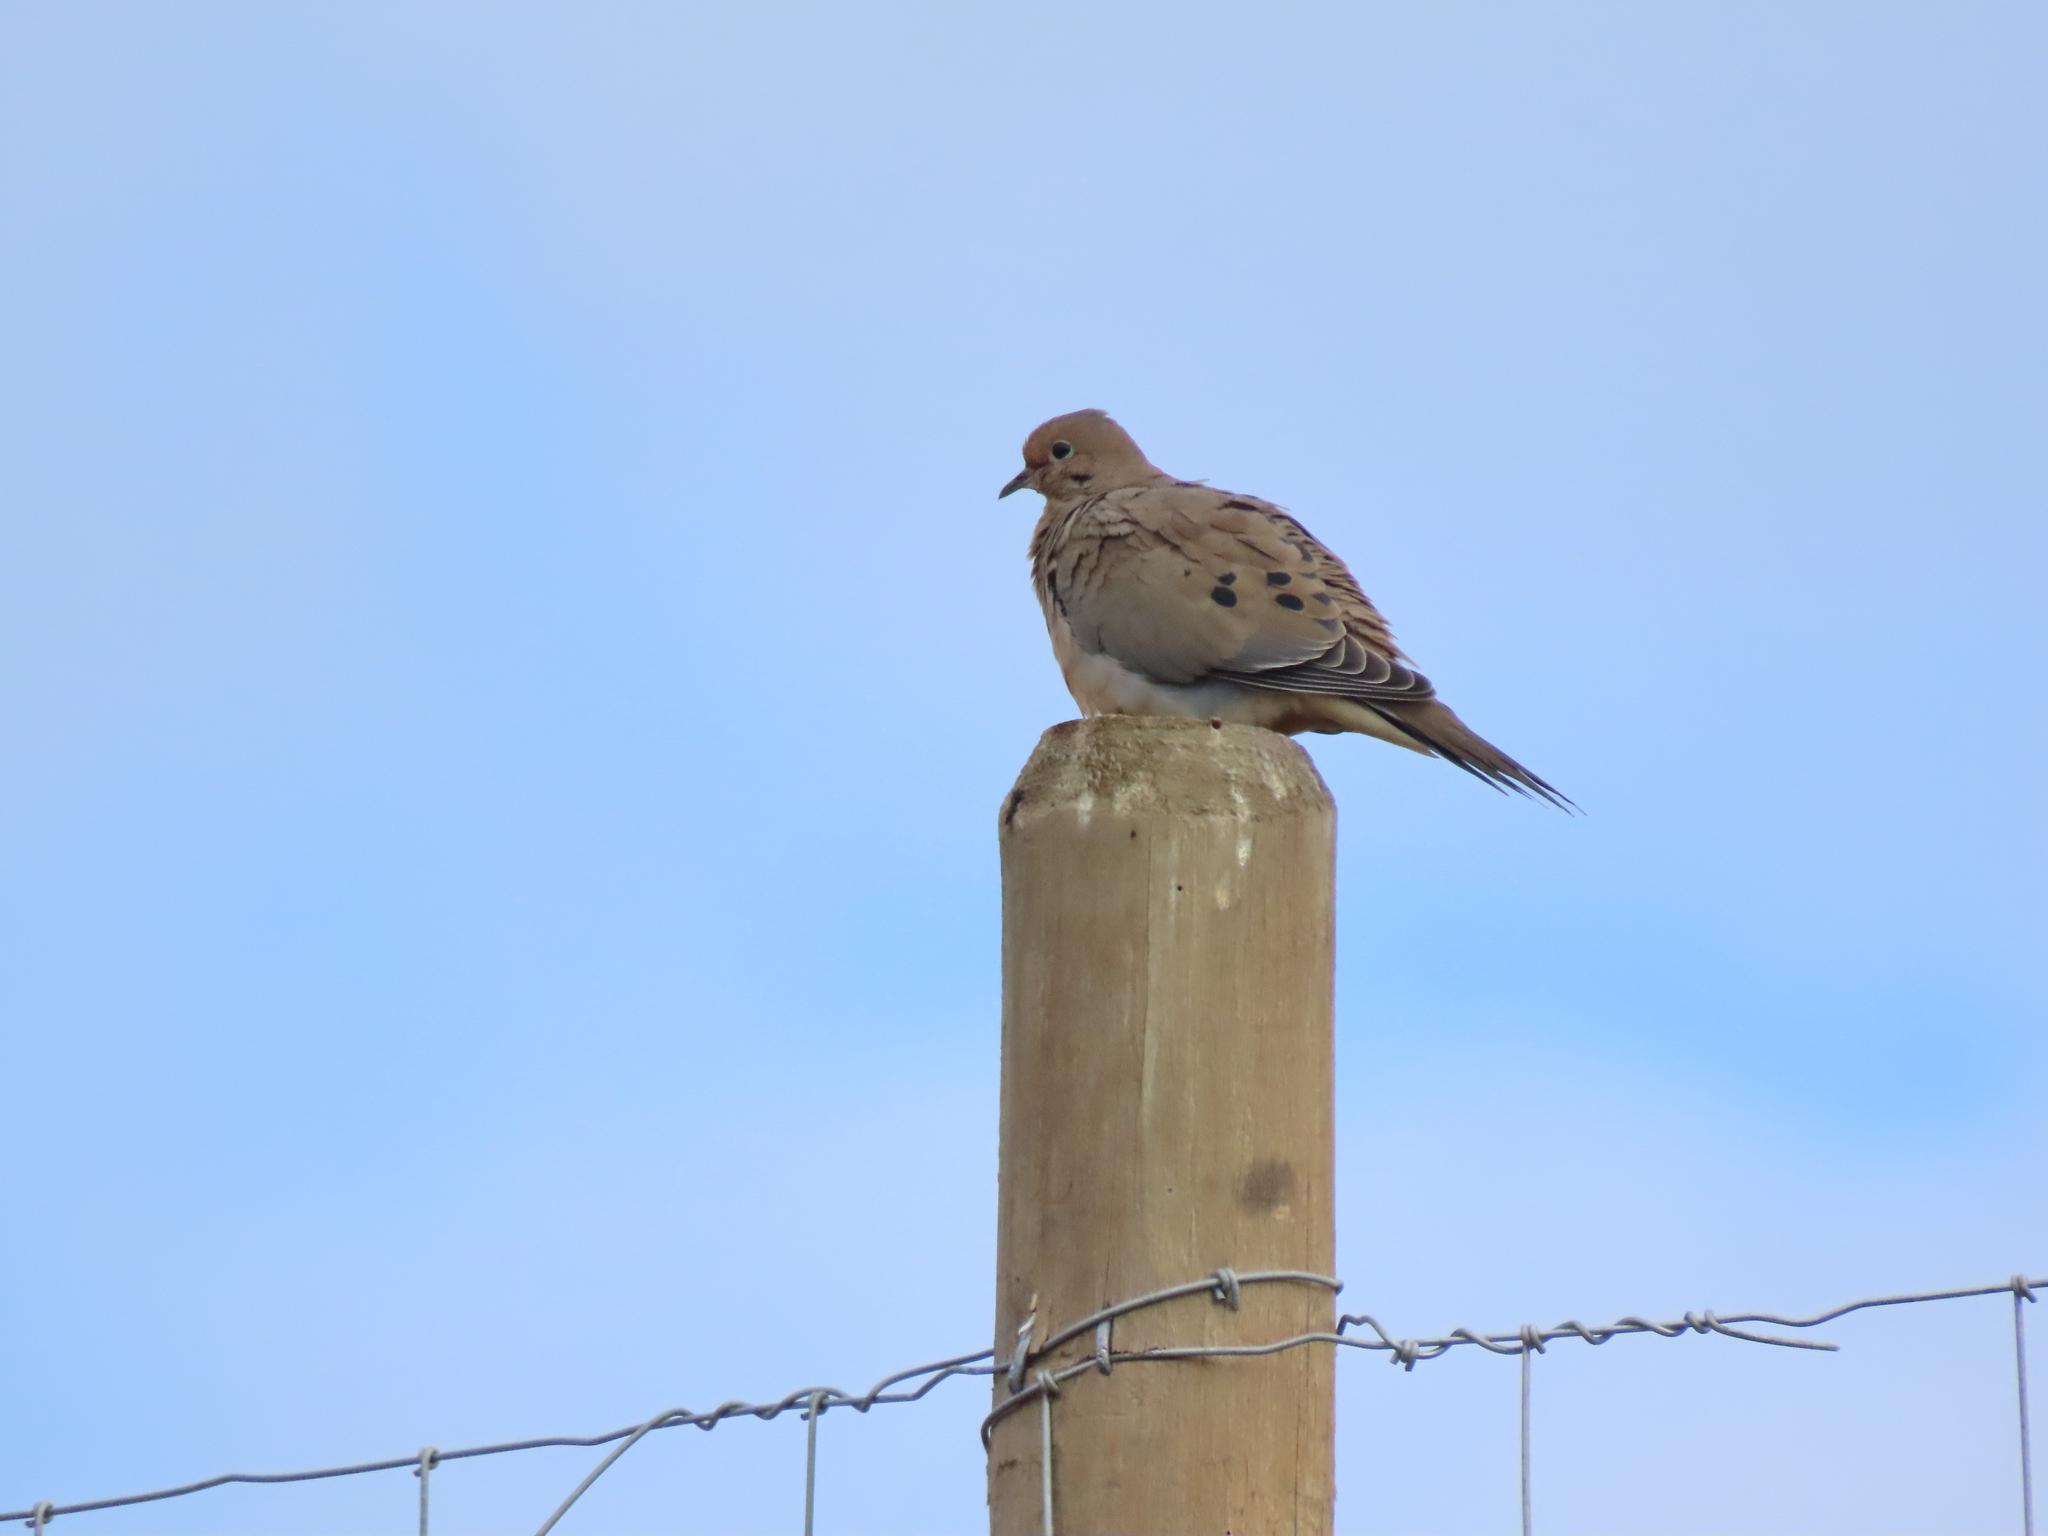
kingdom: Animalia
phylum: Chordata
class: Aves
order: Columbiformes
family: Columbidae
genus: Zenaida
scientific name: Zenaida macroura
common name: Mourning dove
